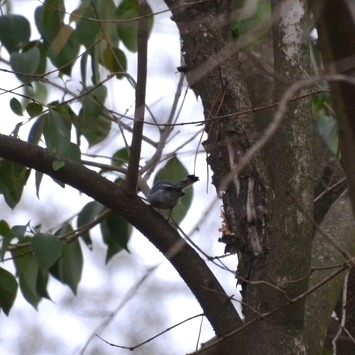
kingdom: Animalia
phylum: Chordata
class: Aves
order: Passeriformes
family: Polioptilidae
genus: Polioptila
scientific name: Polioptila dumicola
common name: Masked gnatcatcher
